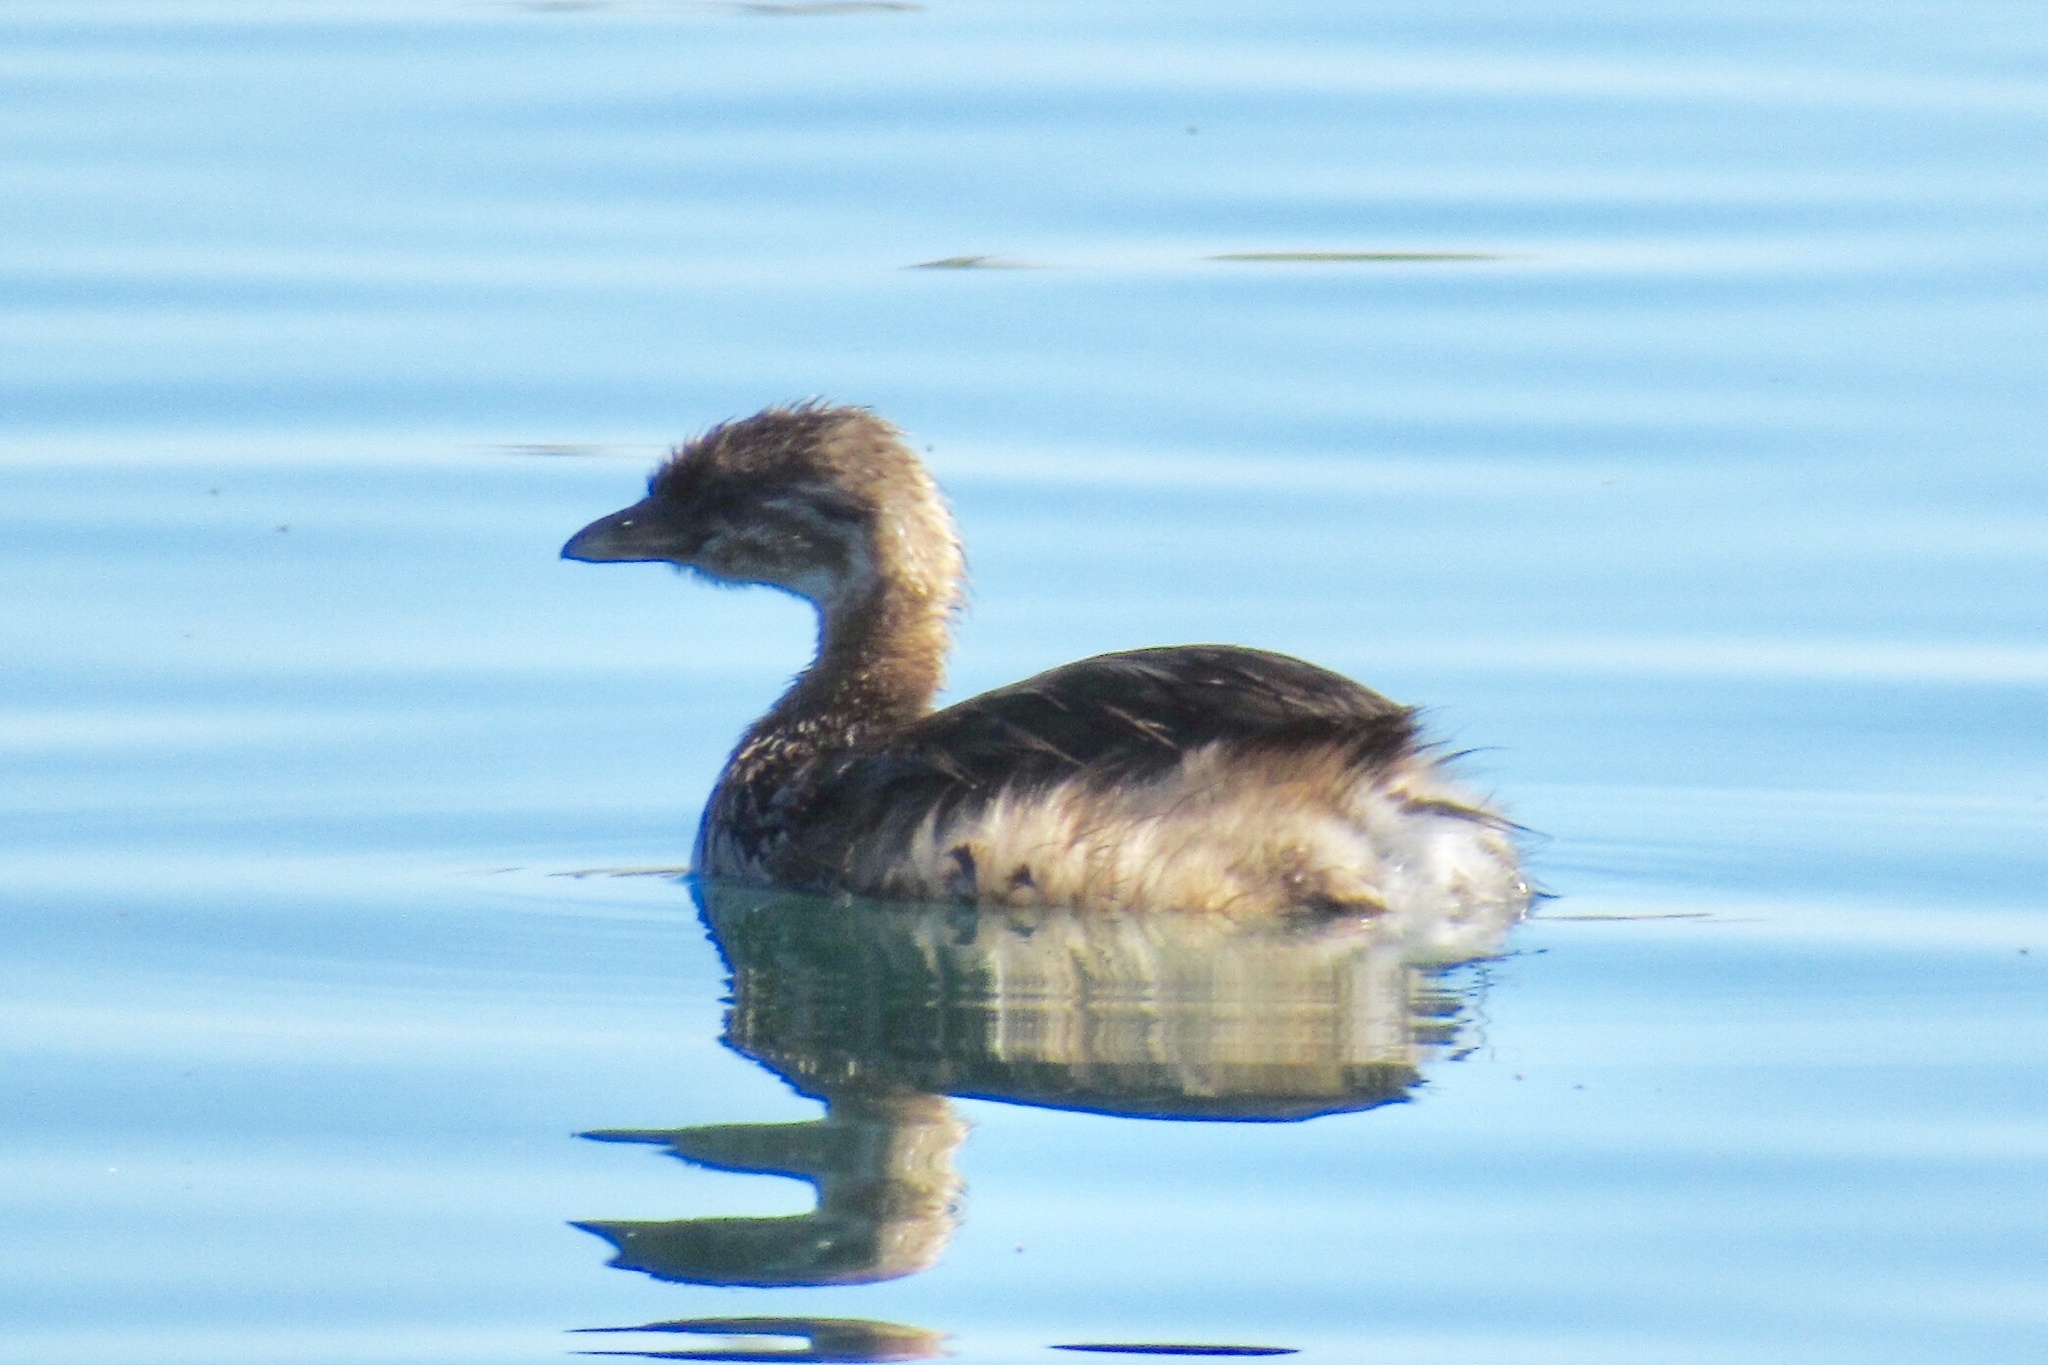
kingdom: Animalia
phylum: Chordata
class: Aves
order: Podicipediformes
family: Podicipedidae
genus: Podilymbus
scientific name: Podilymbus podiceps
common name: Pied-billed grebe
